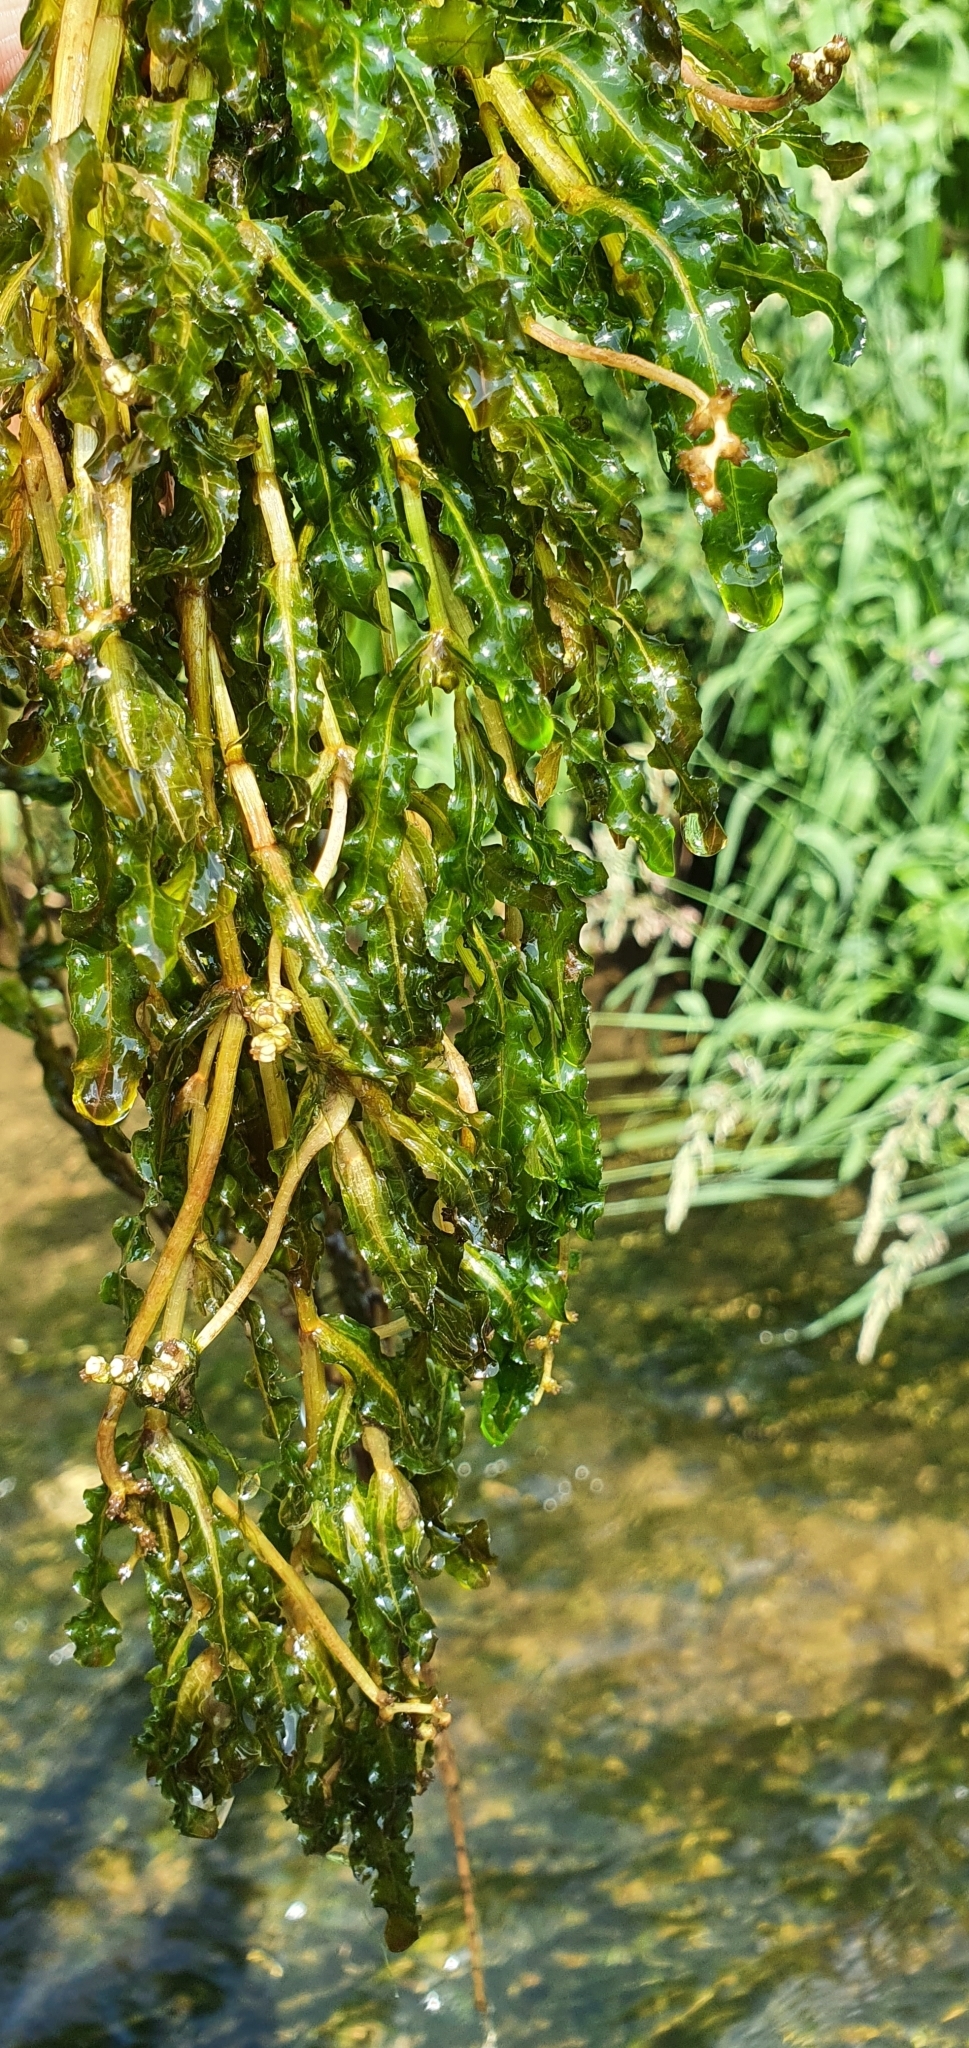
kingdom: Plantae
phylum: Tracheophyta
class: Liliopsida
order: Alismatales
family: Potamogetonaceae
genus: Potamogeton
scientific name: Potamogeton crispus
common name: Curled pondweed
